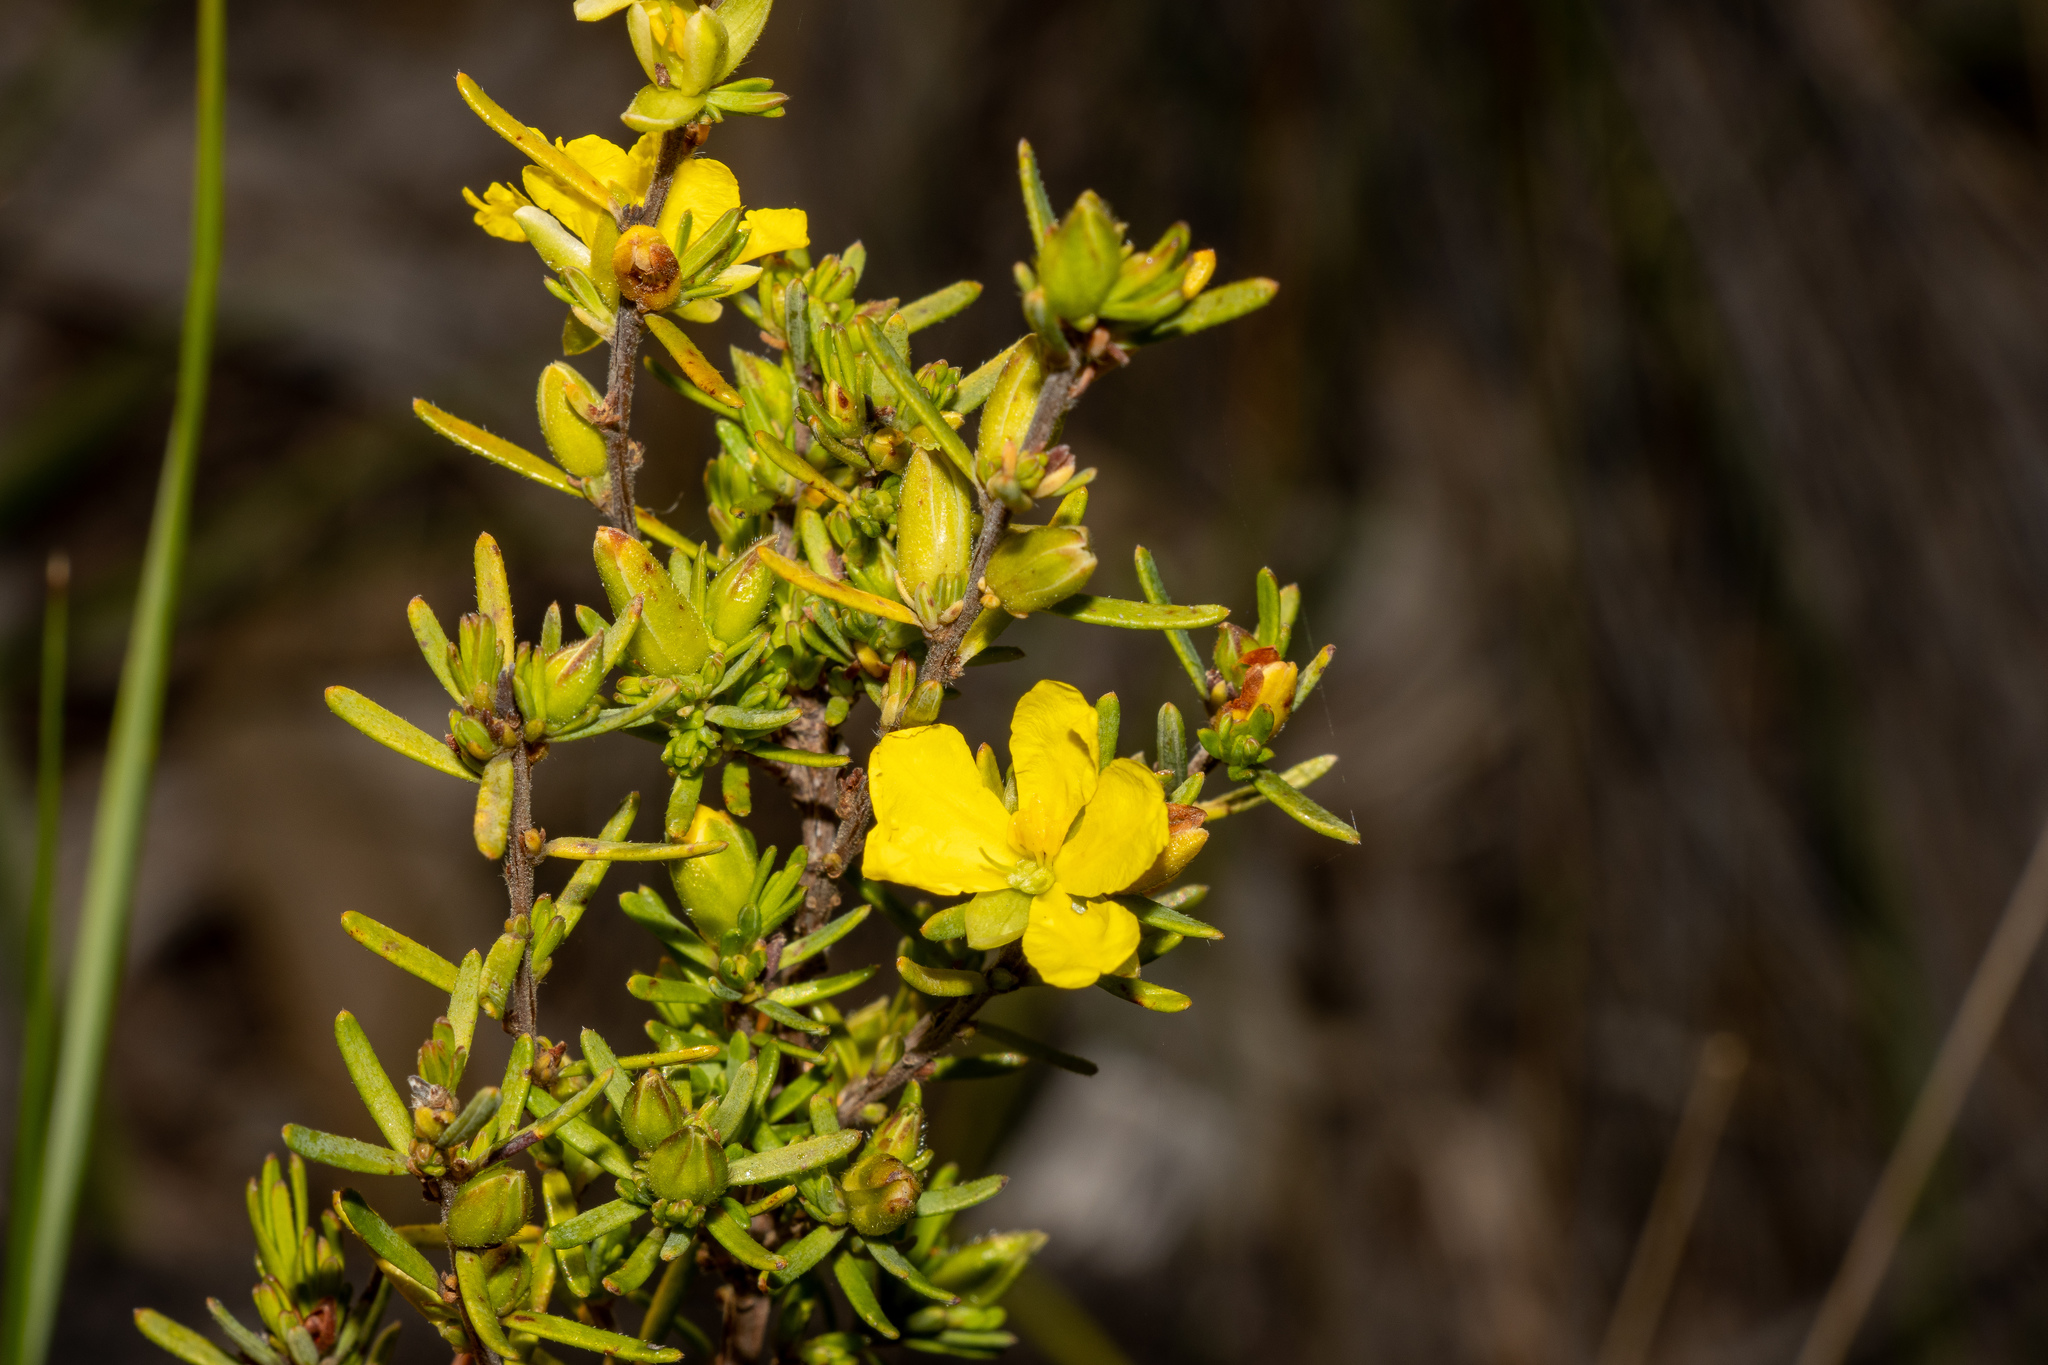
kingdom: Plantae
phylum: Tracheophyta
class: Magnoliopsida
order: Dilleniales
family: Dilleniaceae
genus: Hibbertia
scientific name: Hibbertia riparia
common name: Erect guinea-flower
